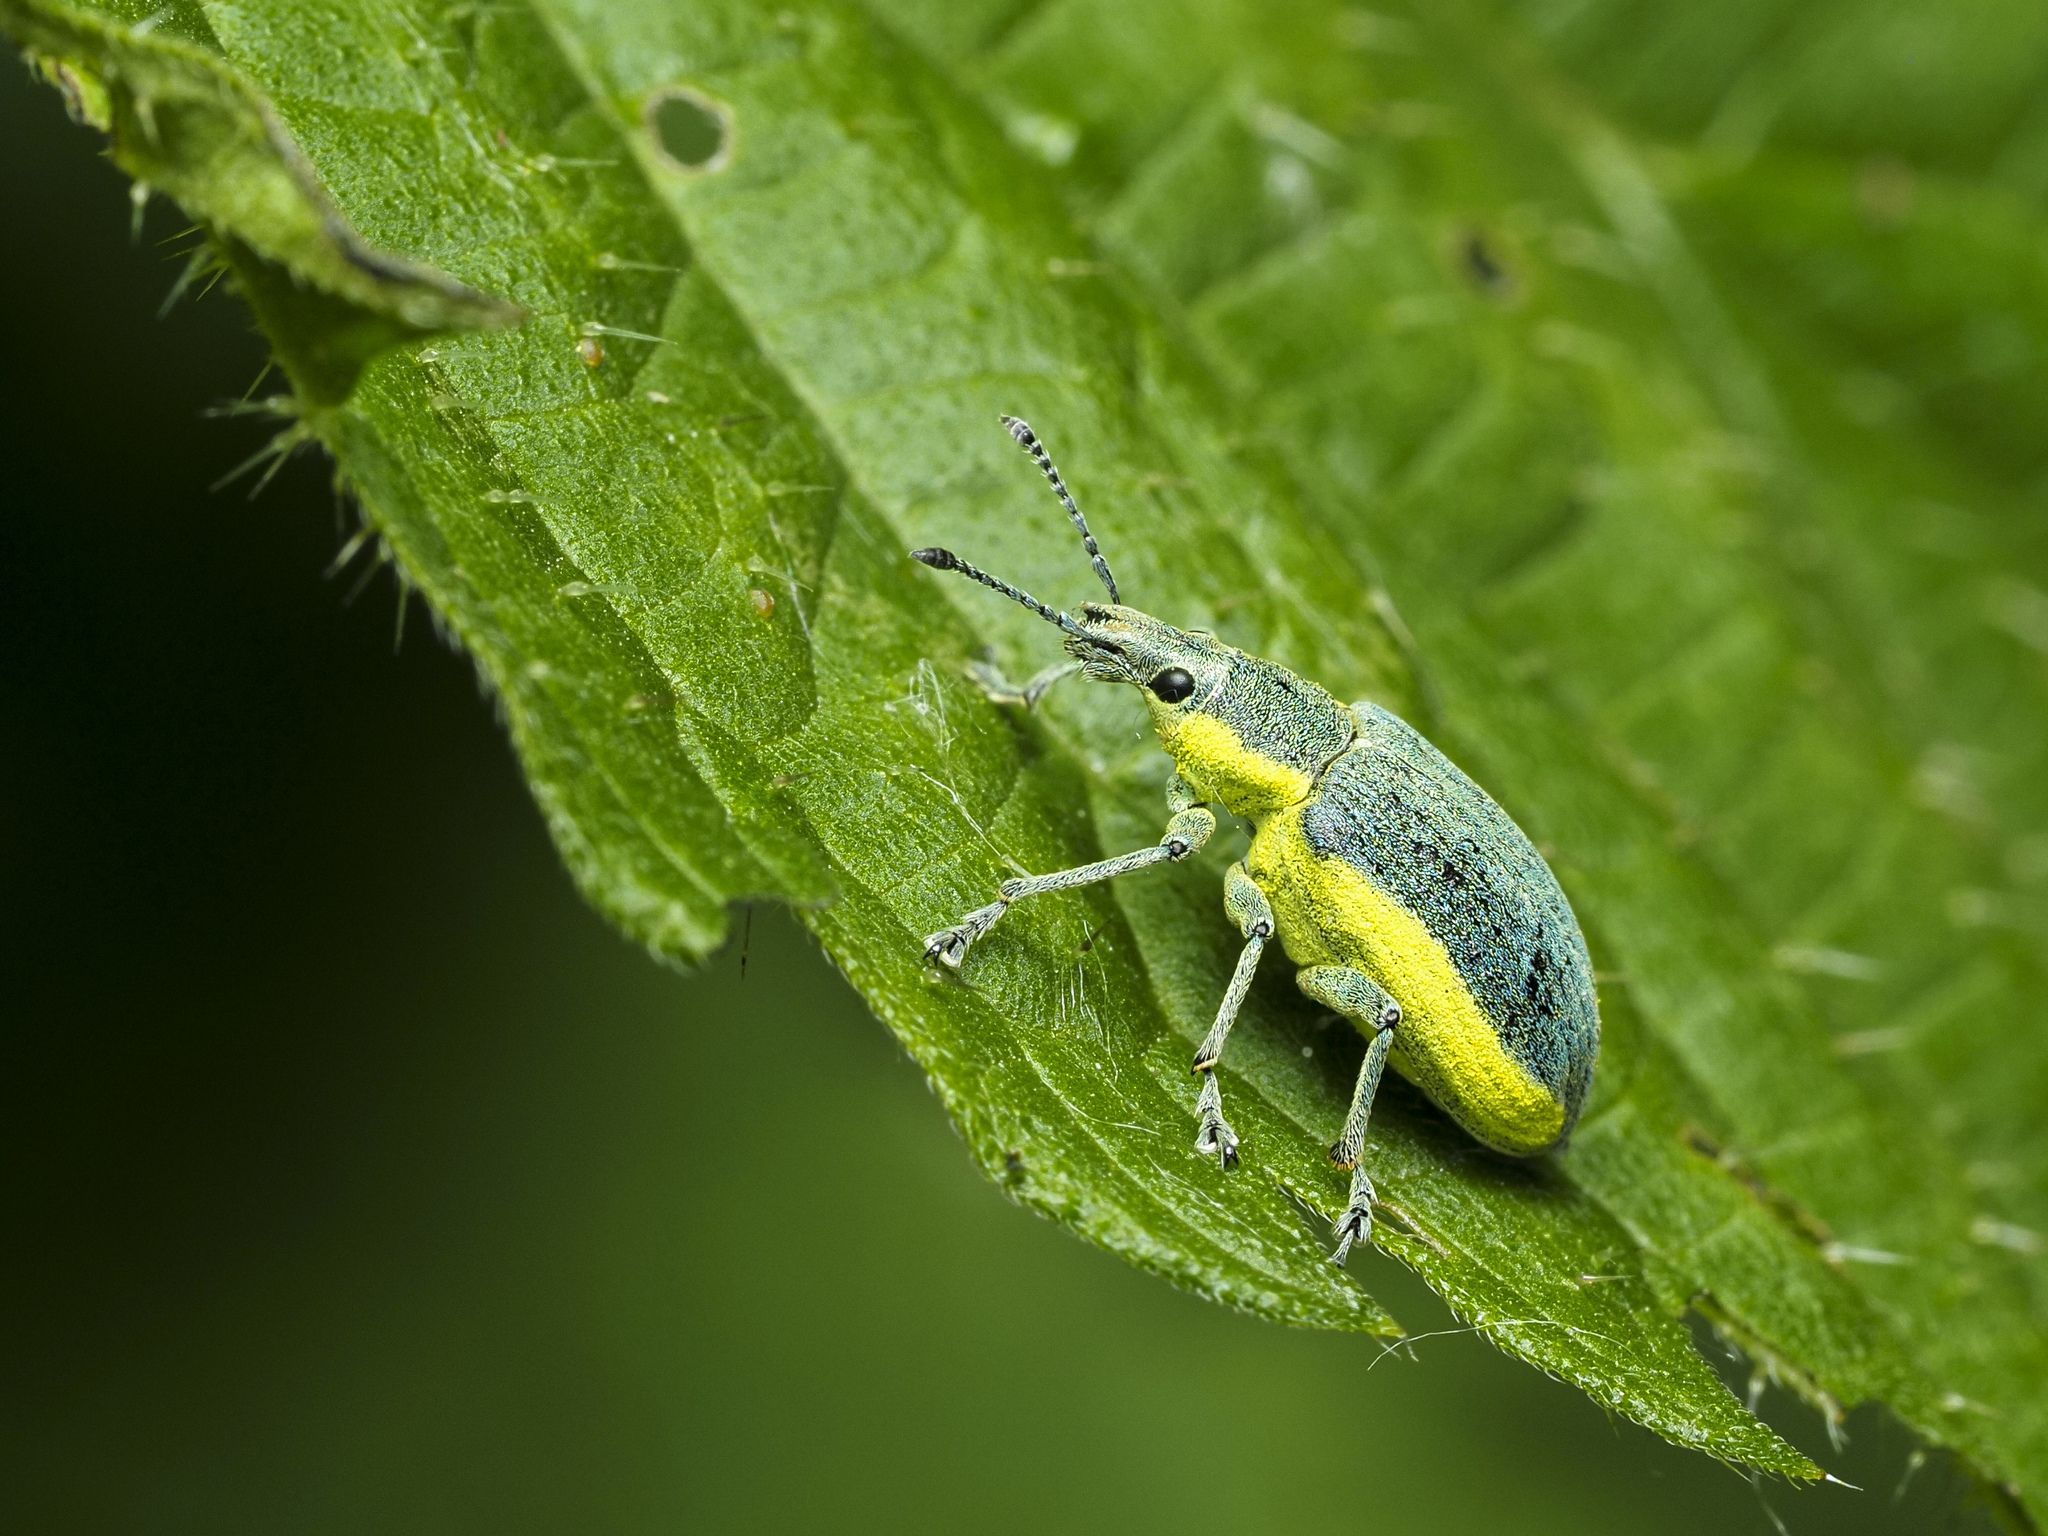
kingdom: Animalia
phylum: Arthropoda
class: Insecta
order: Coleoptera
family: Curculionidae
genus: Chlorophanus
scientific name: Chlorophanus viridis
